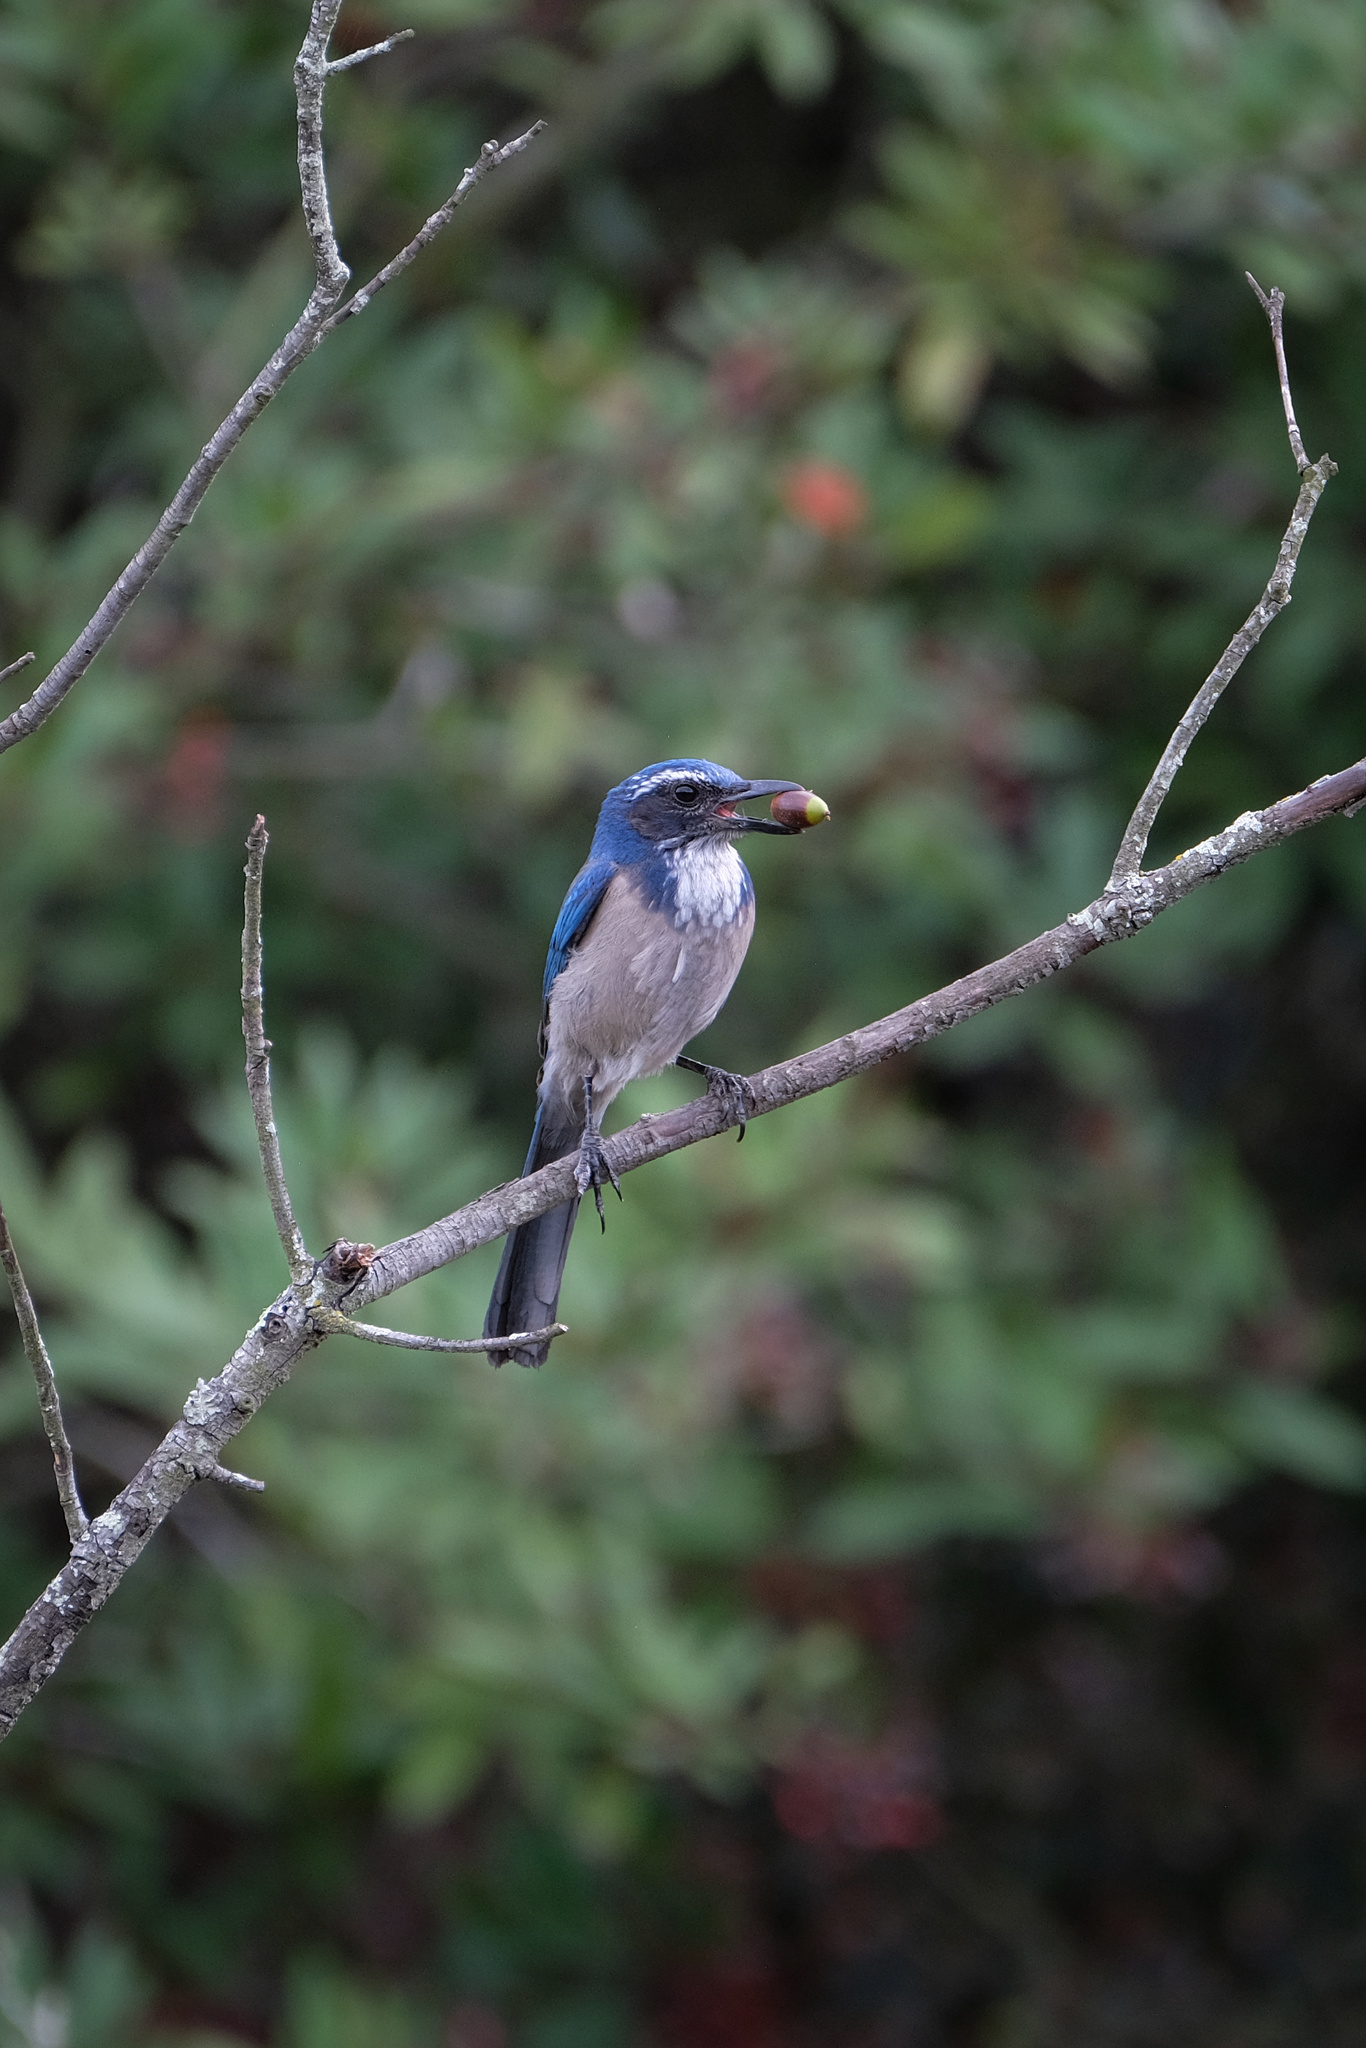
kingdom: Animalia
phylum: Chordata
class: Aves
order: Passeriformes
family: Corvidae
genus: Aphelocoma
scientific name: Aphelocoma californica
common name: California scrub-jay
